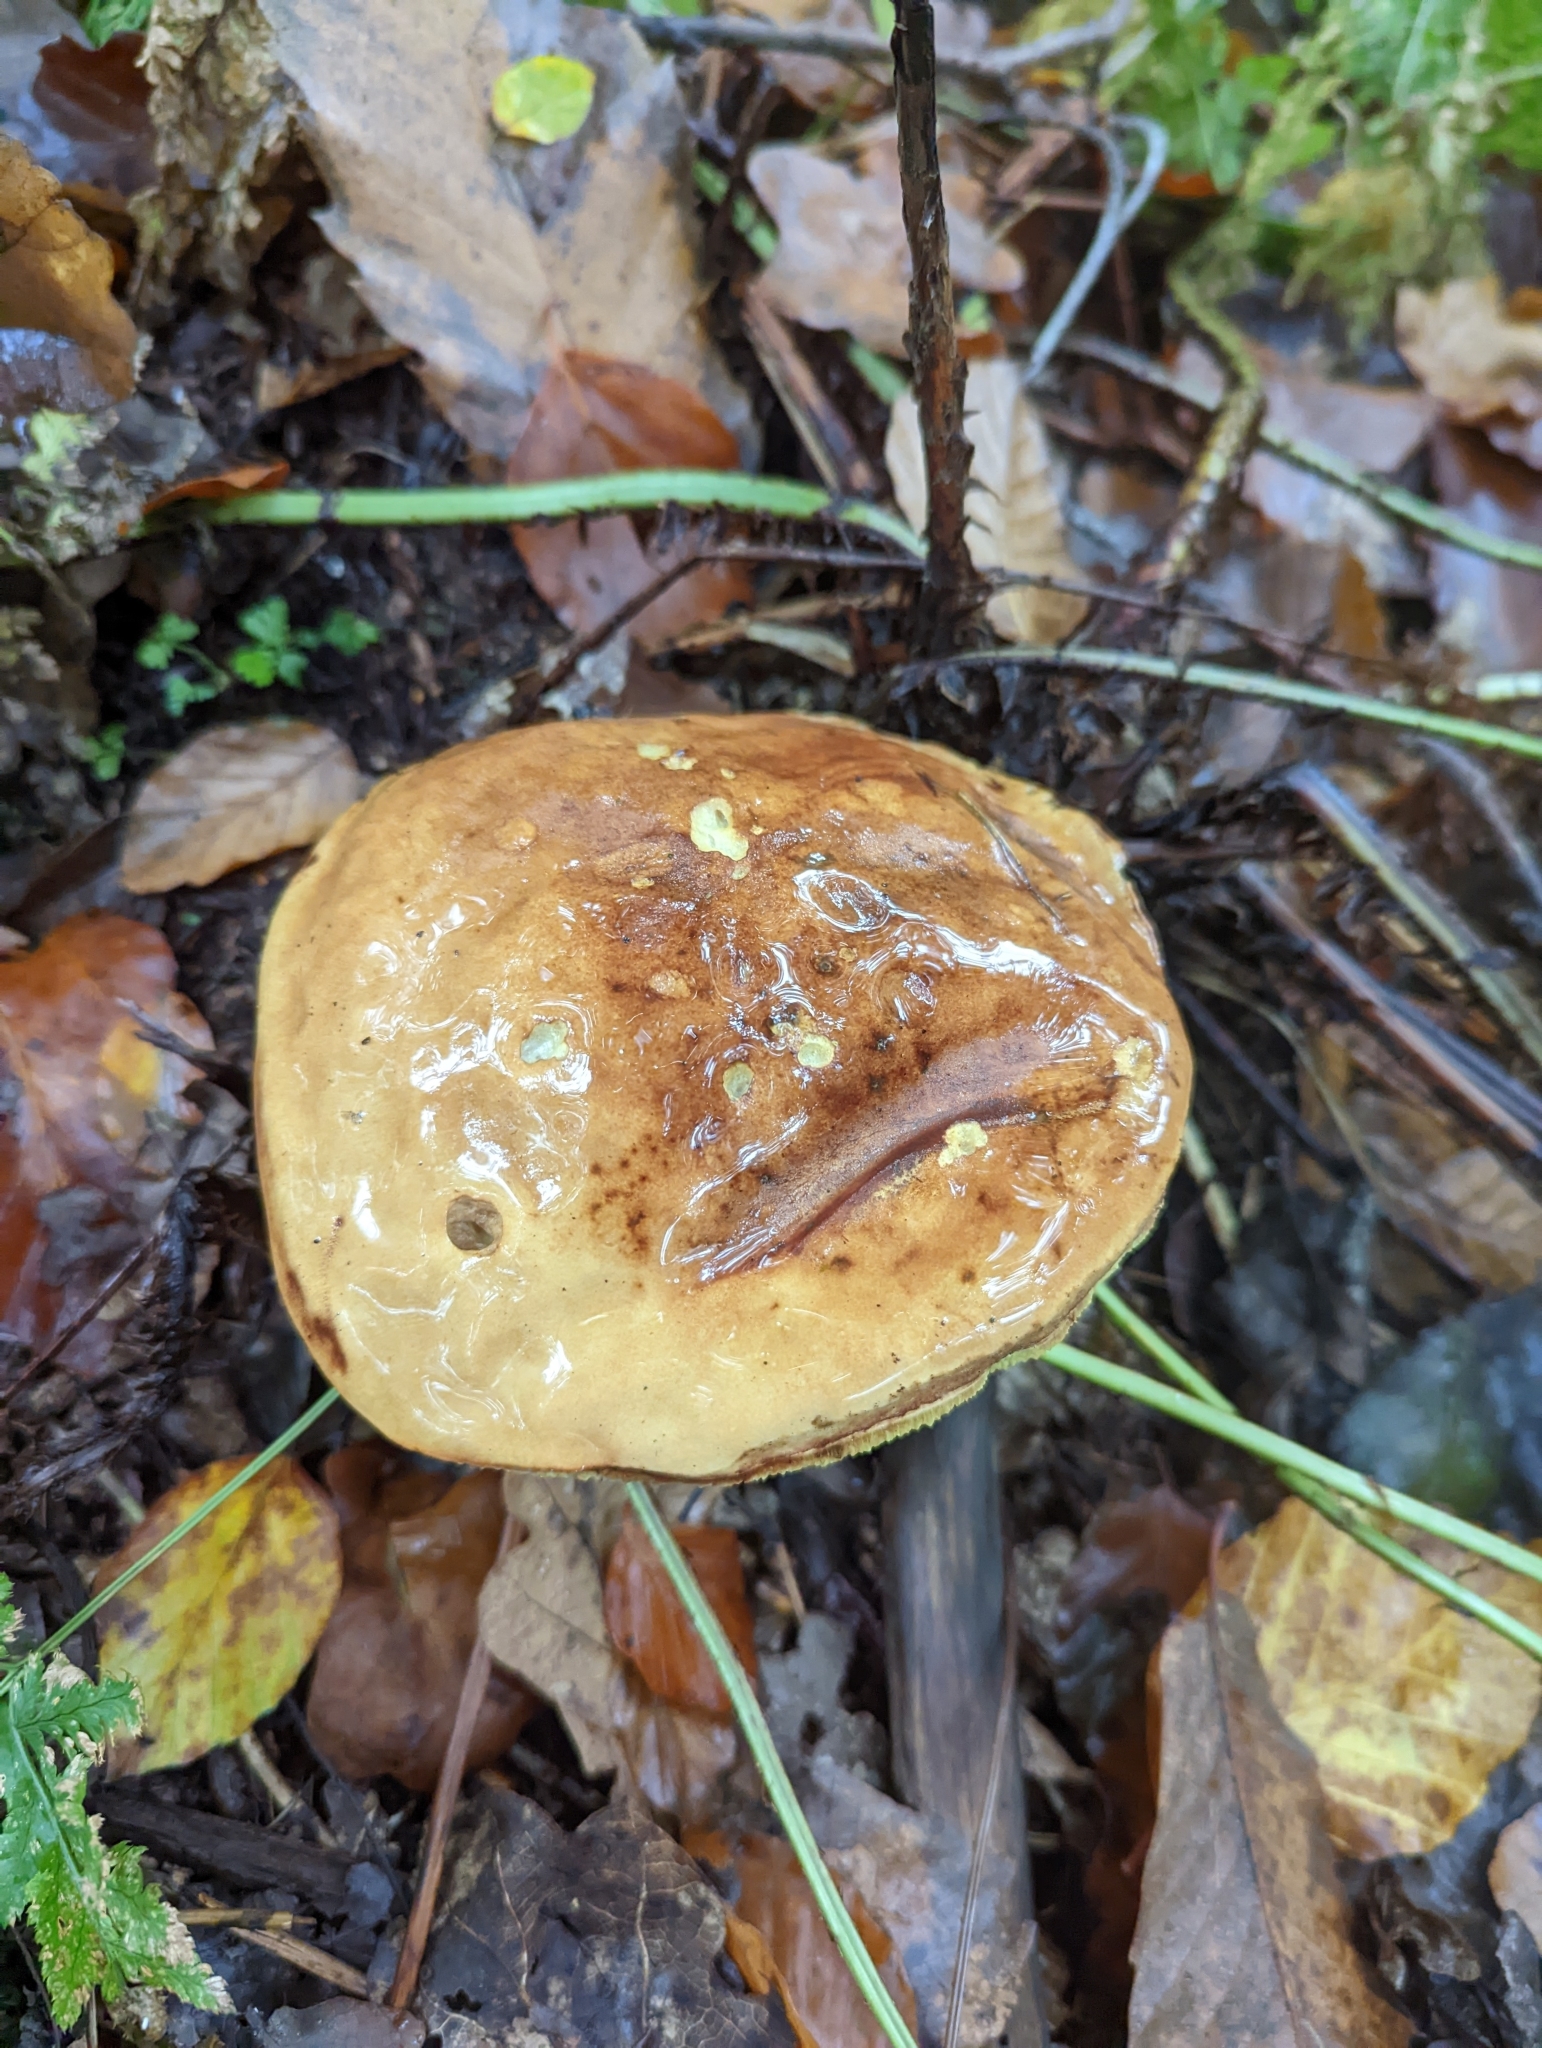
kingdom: Fungi
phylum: Basidiomycota
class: Agaricomycetes
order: Boletales
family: Boletaceae
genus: Imleria
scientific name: Imleria badia
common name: Bay bolete
